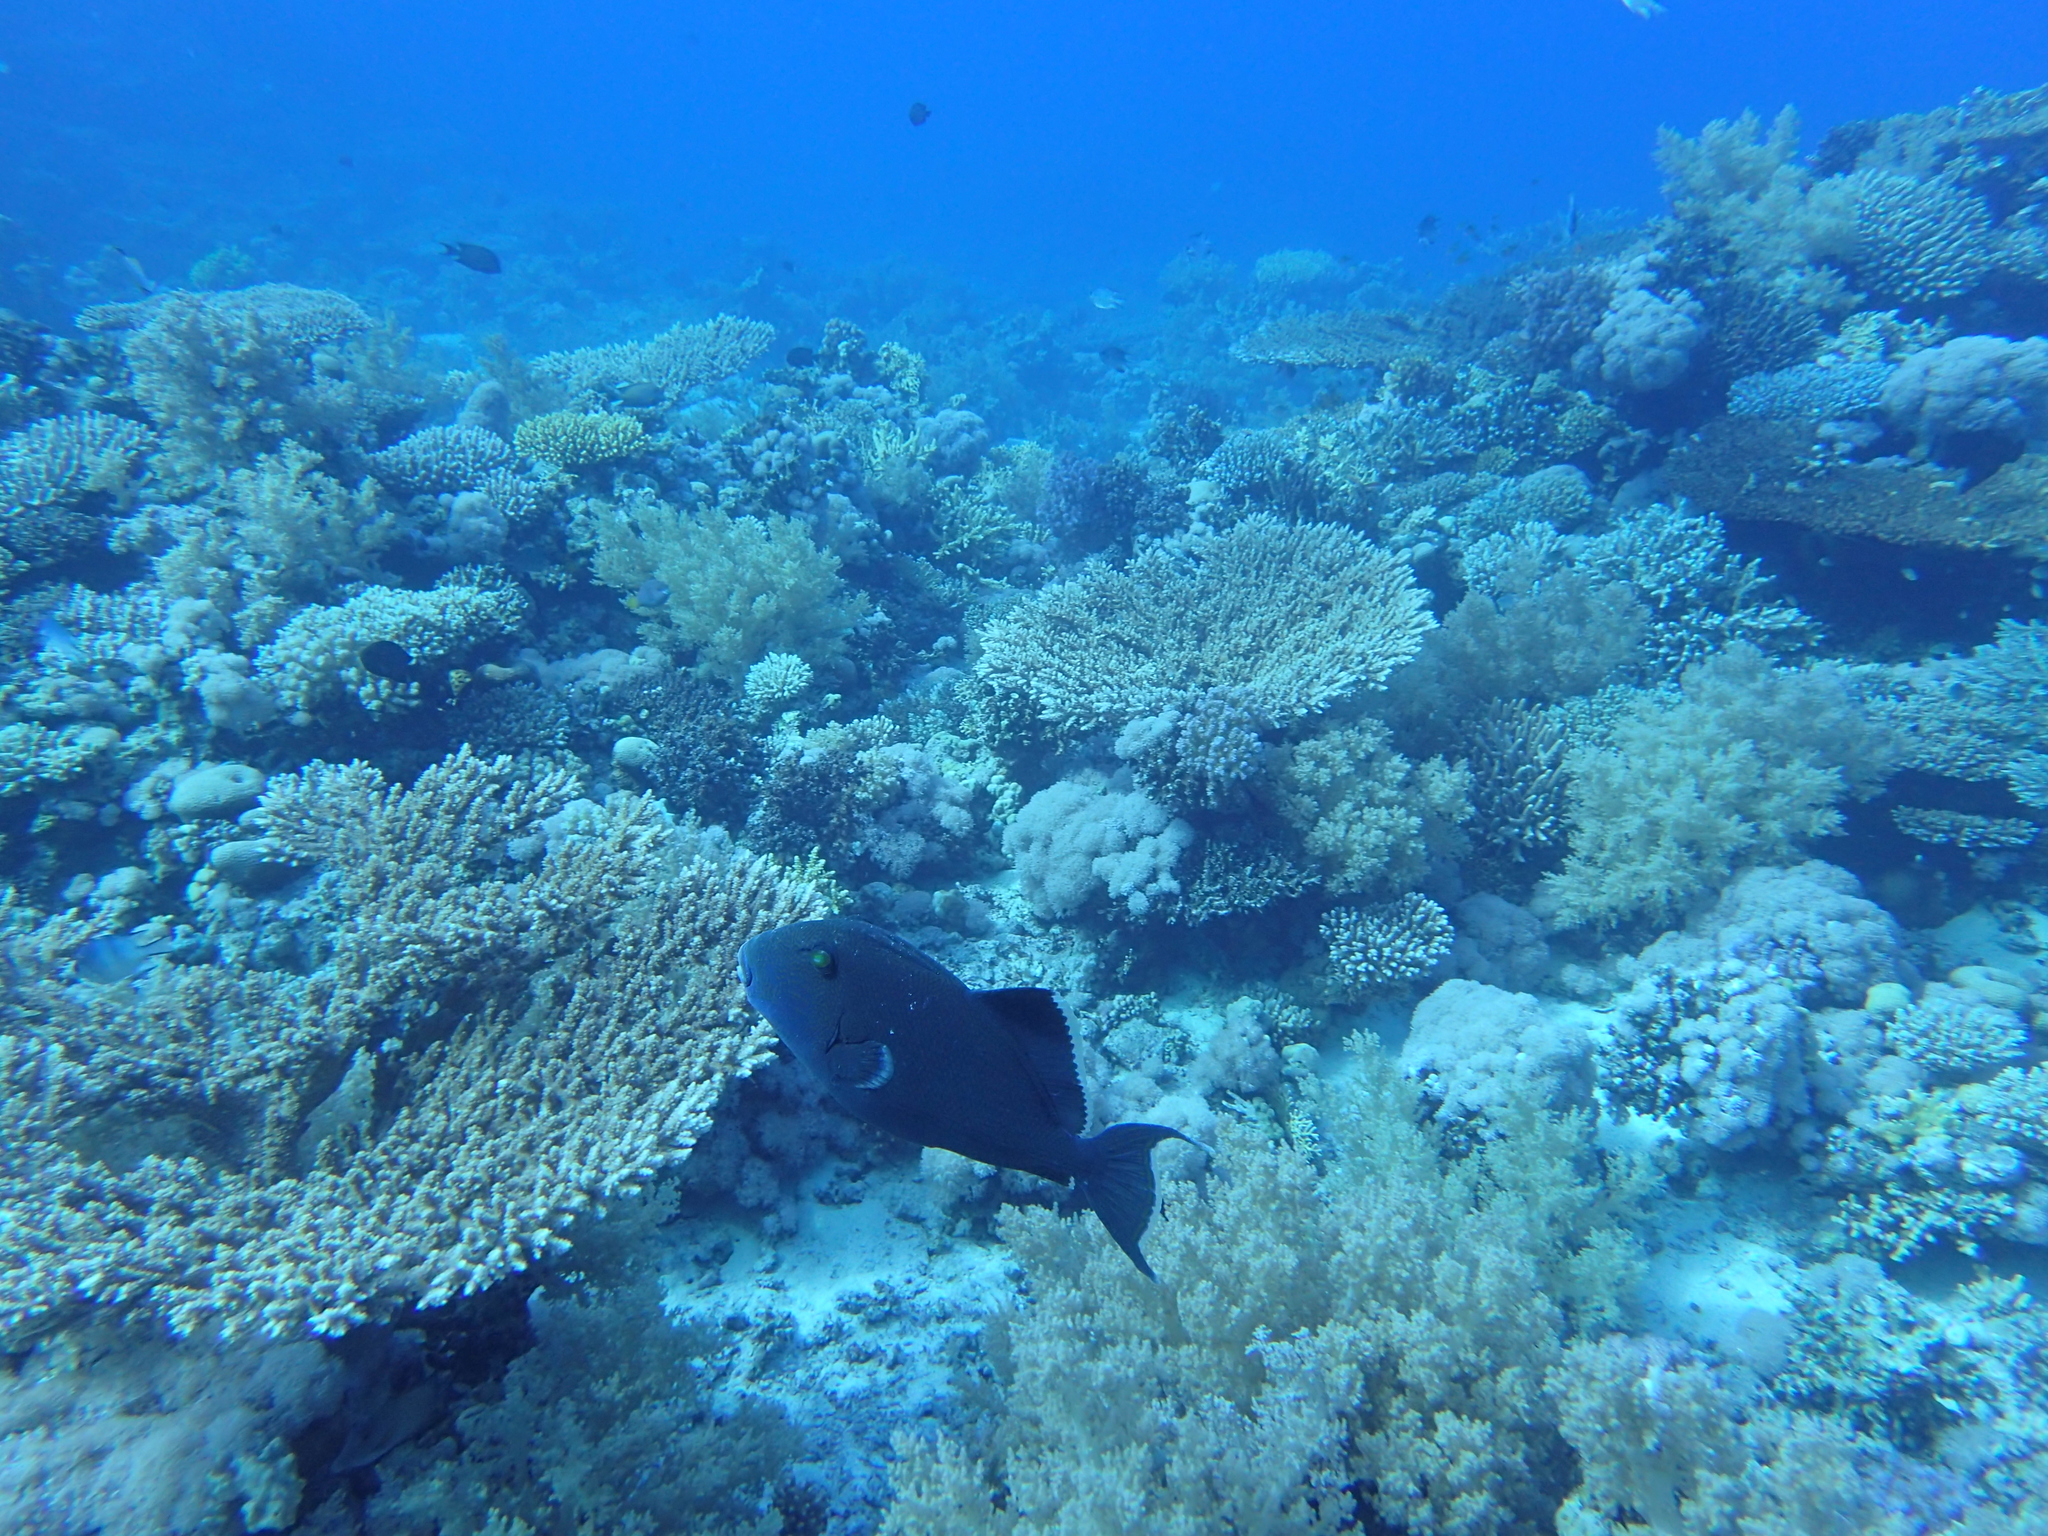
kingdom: Animalia
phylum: Chordata
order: Tetraodontiformes
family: Balistidae
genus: Pseudobalistes
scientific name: Pseudobalistes fuscus
